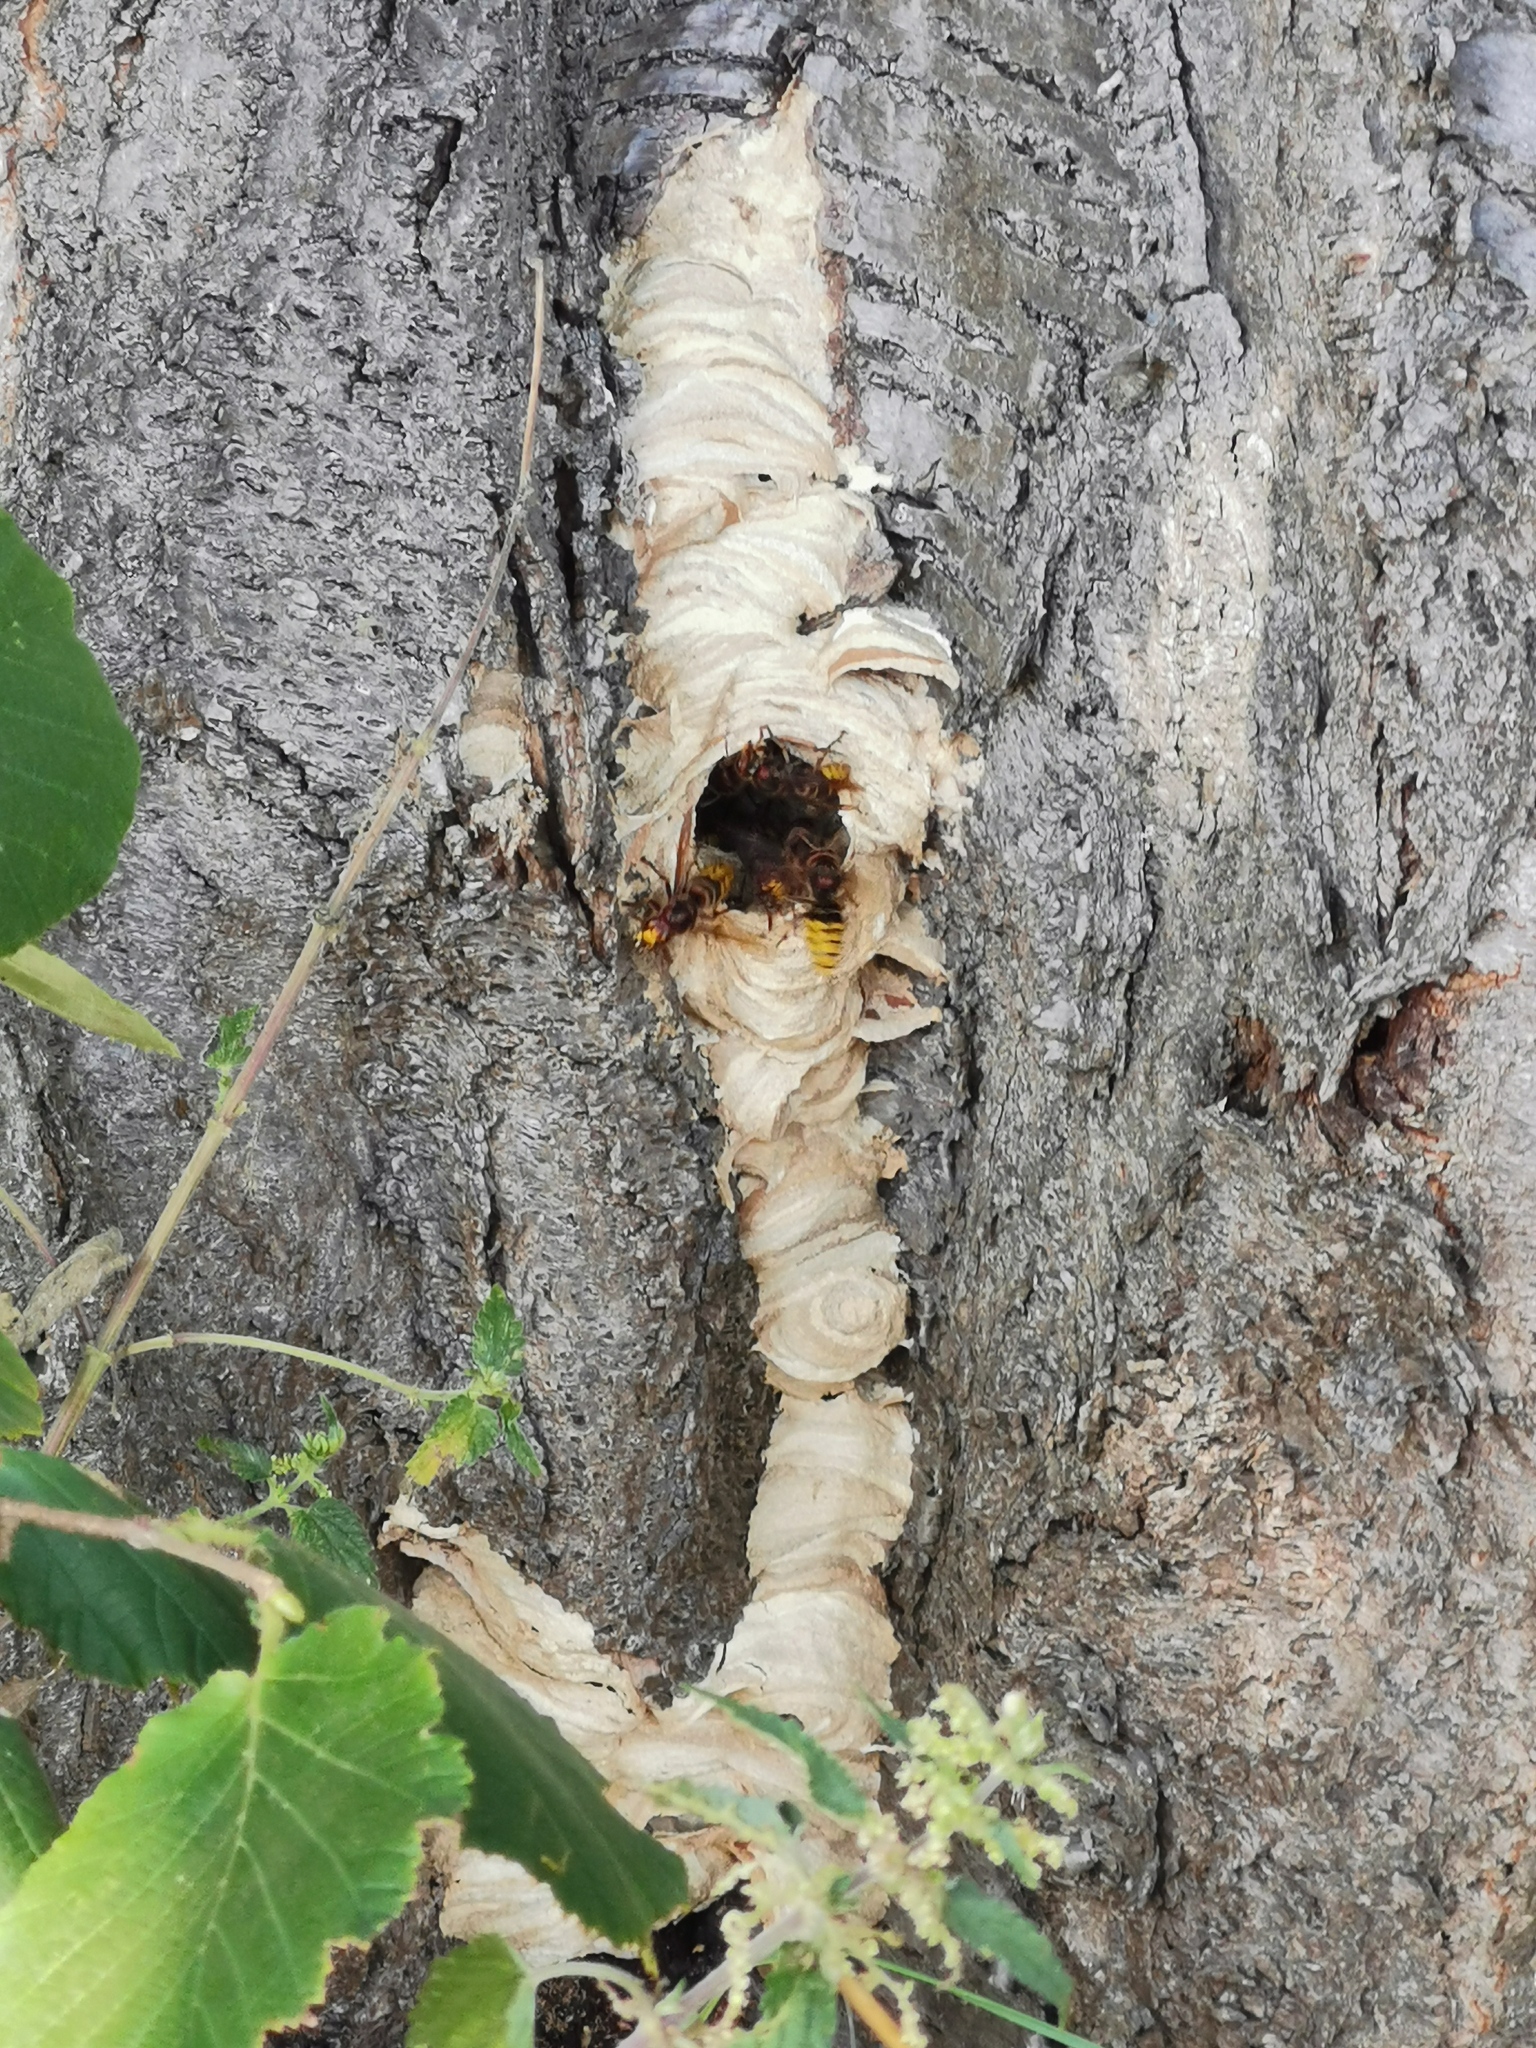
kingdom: Animalia
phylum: Arthropoda
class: Insecta
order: Hymenoptera
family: Vespidae
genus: Vespa
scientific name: Vespa crabro
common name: Hornet
